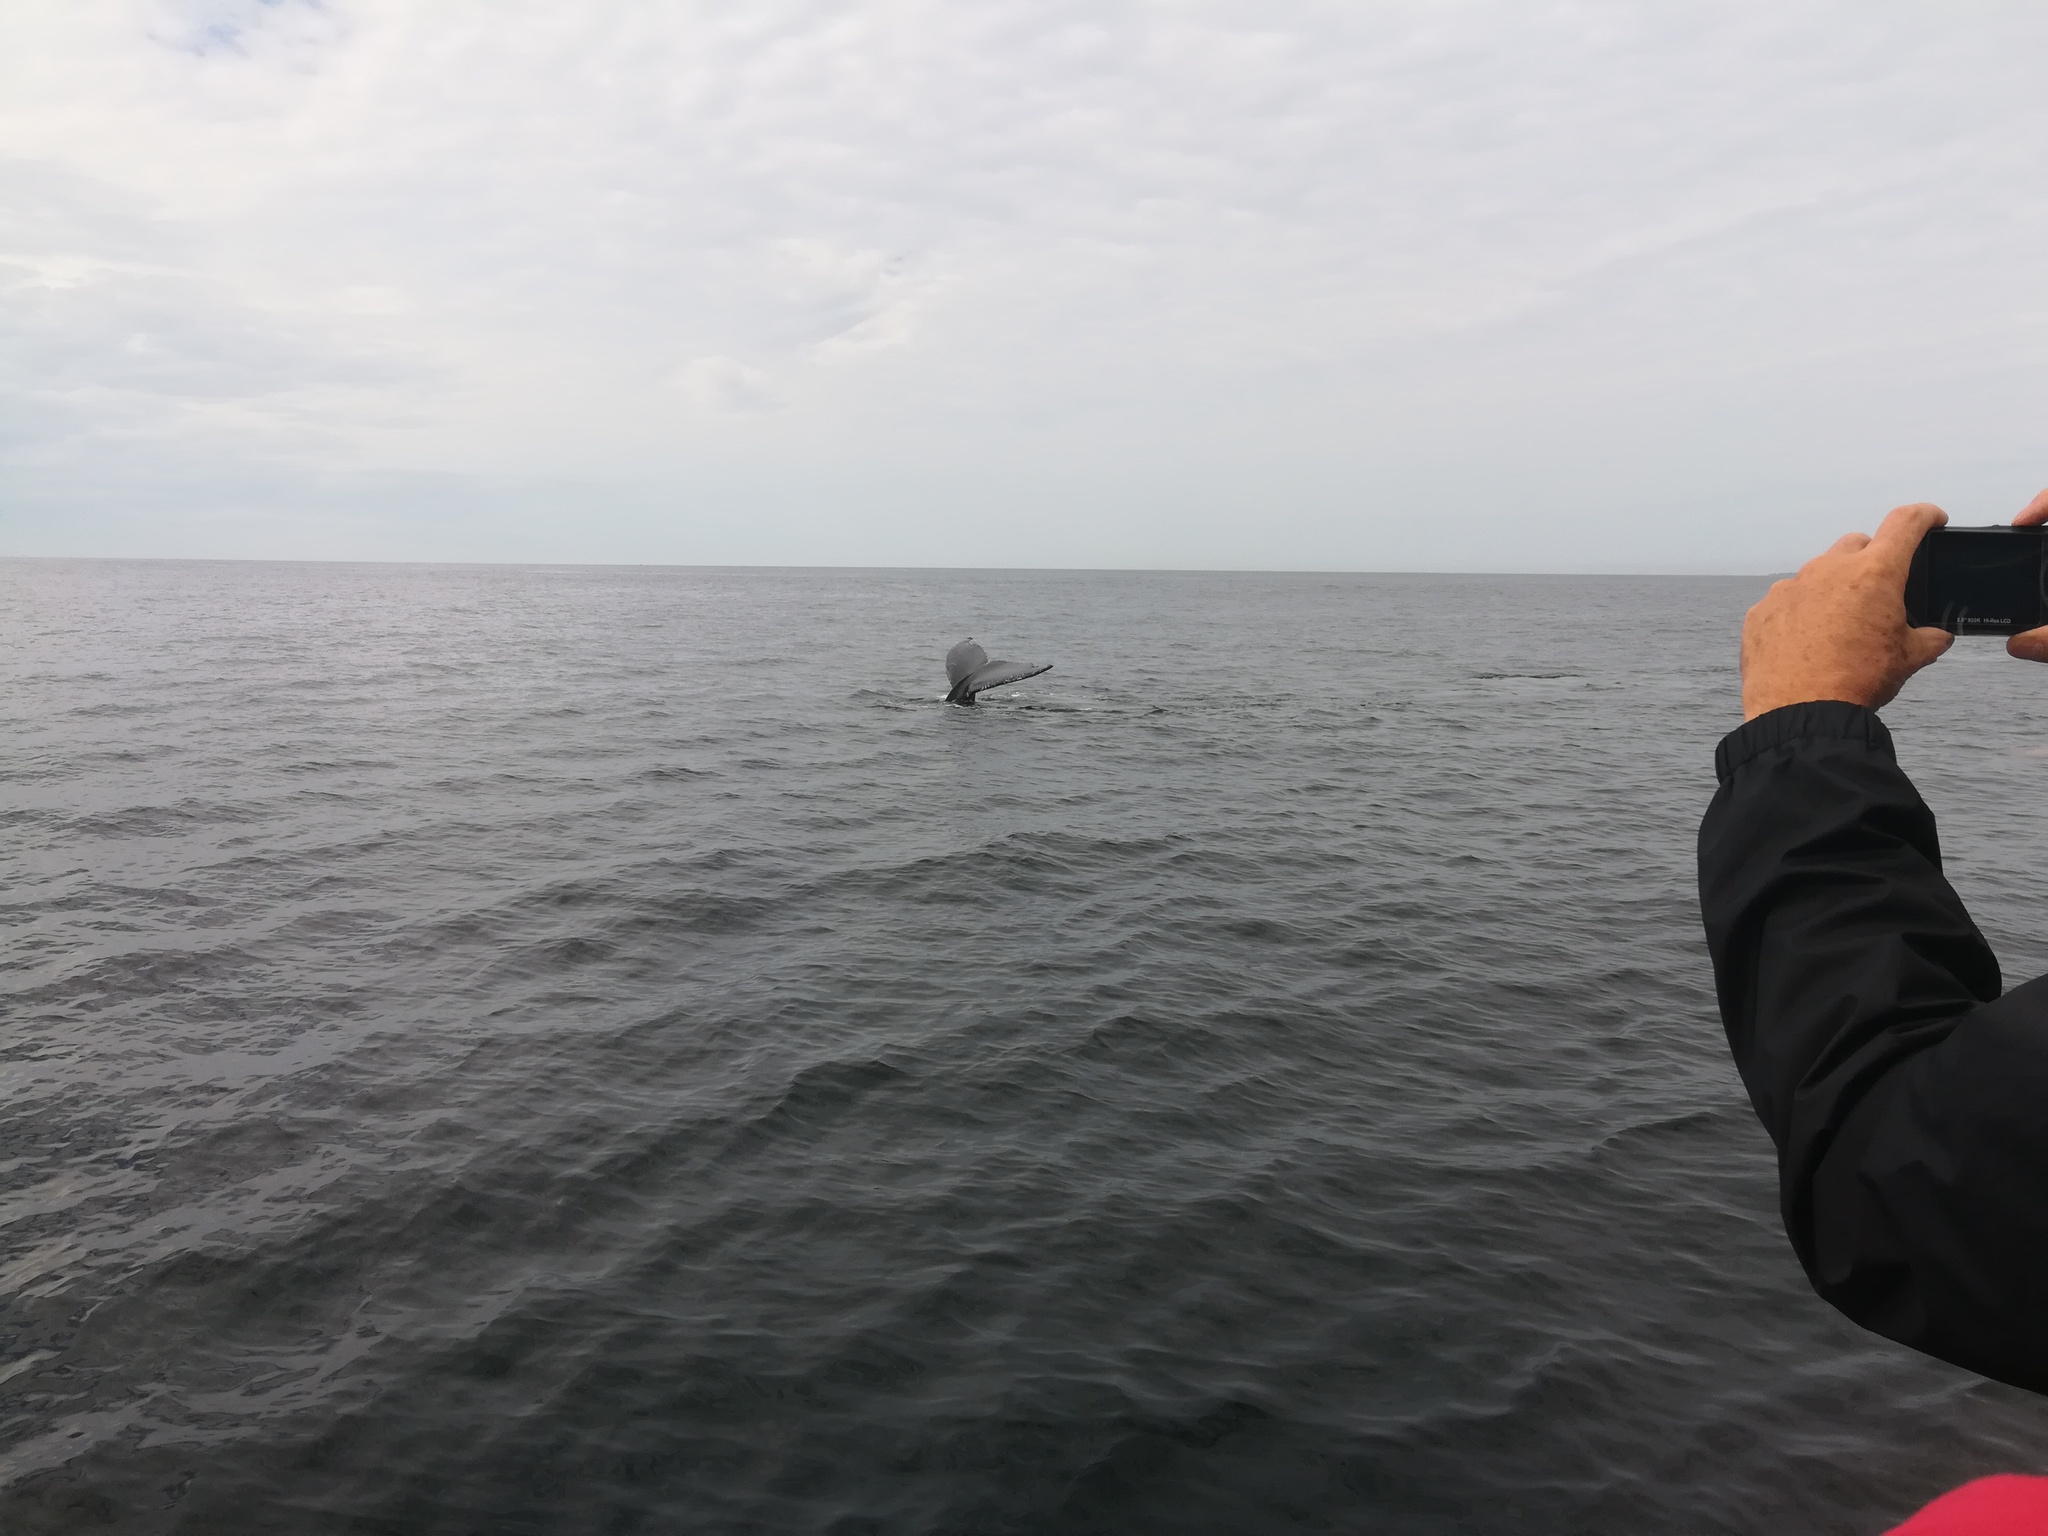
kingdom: Animalia
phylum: Chordata
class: Mammalia
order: Cetacea
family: Balaenopteridae
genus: Megaptera
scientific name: Megaptera novaeangliae
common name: Humpback whale
